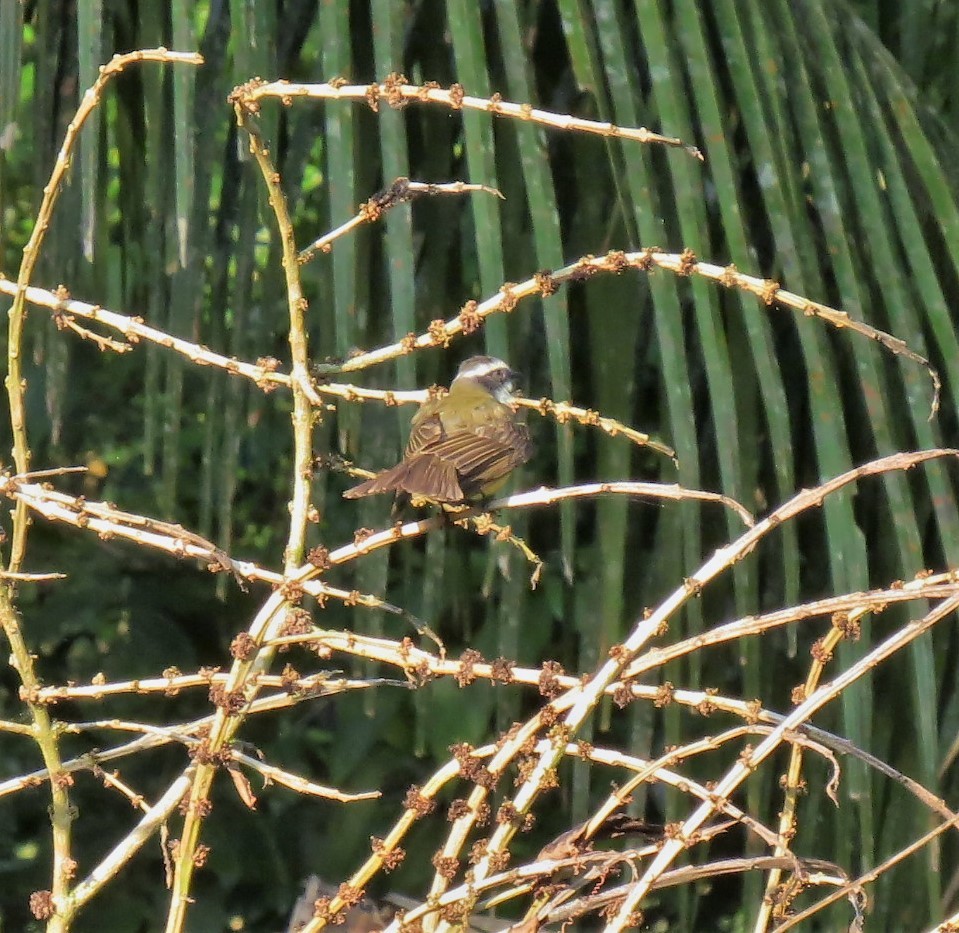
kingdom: Animalia
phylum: Chordata
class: Aves
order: Passeriformes
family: Tyrannidae
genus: Myiozetetes
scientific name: Myiozetetes similis
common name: Social flycatcher
